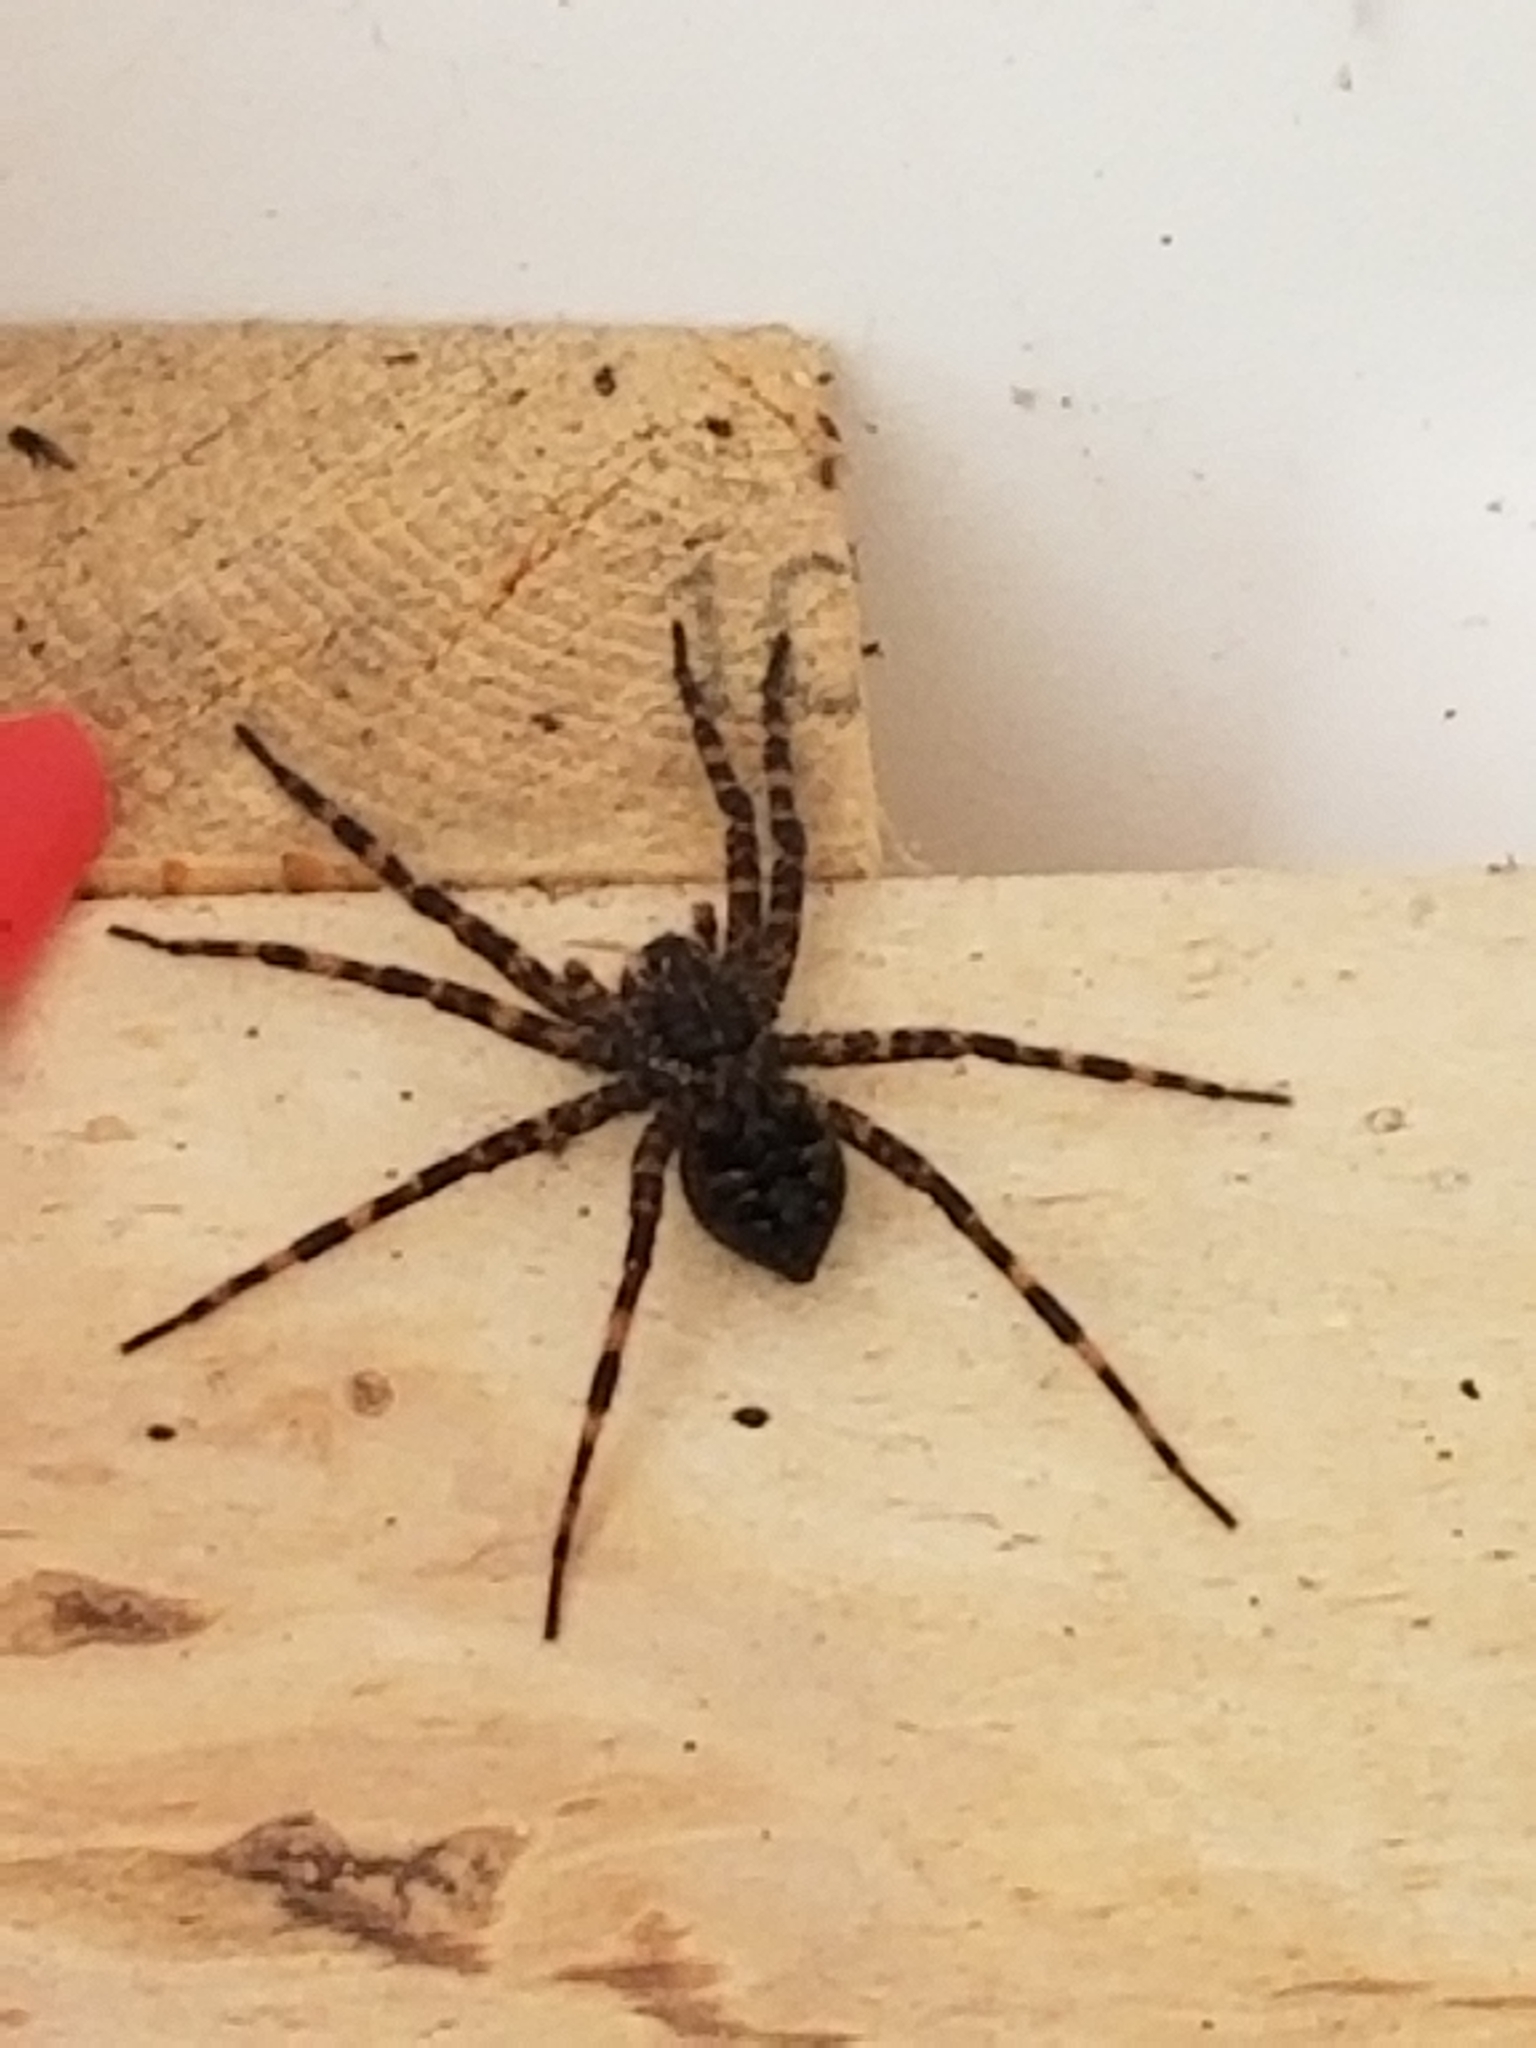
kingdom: Animalia
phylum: Arthropoda
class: Arachnida
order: Araneae
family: Pisauridae
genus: Dolomedes
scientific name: Dolomedes tenebrosus
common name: Dark fishing spider
